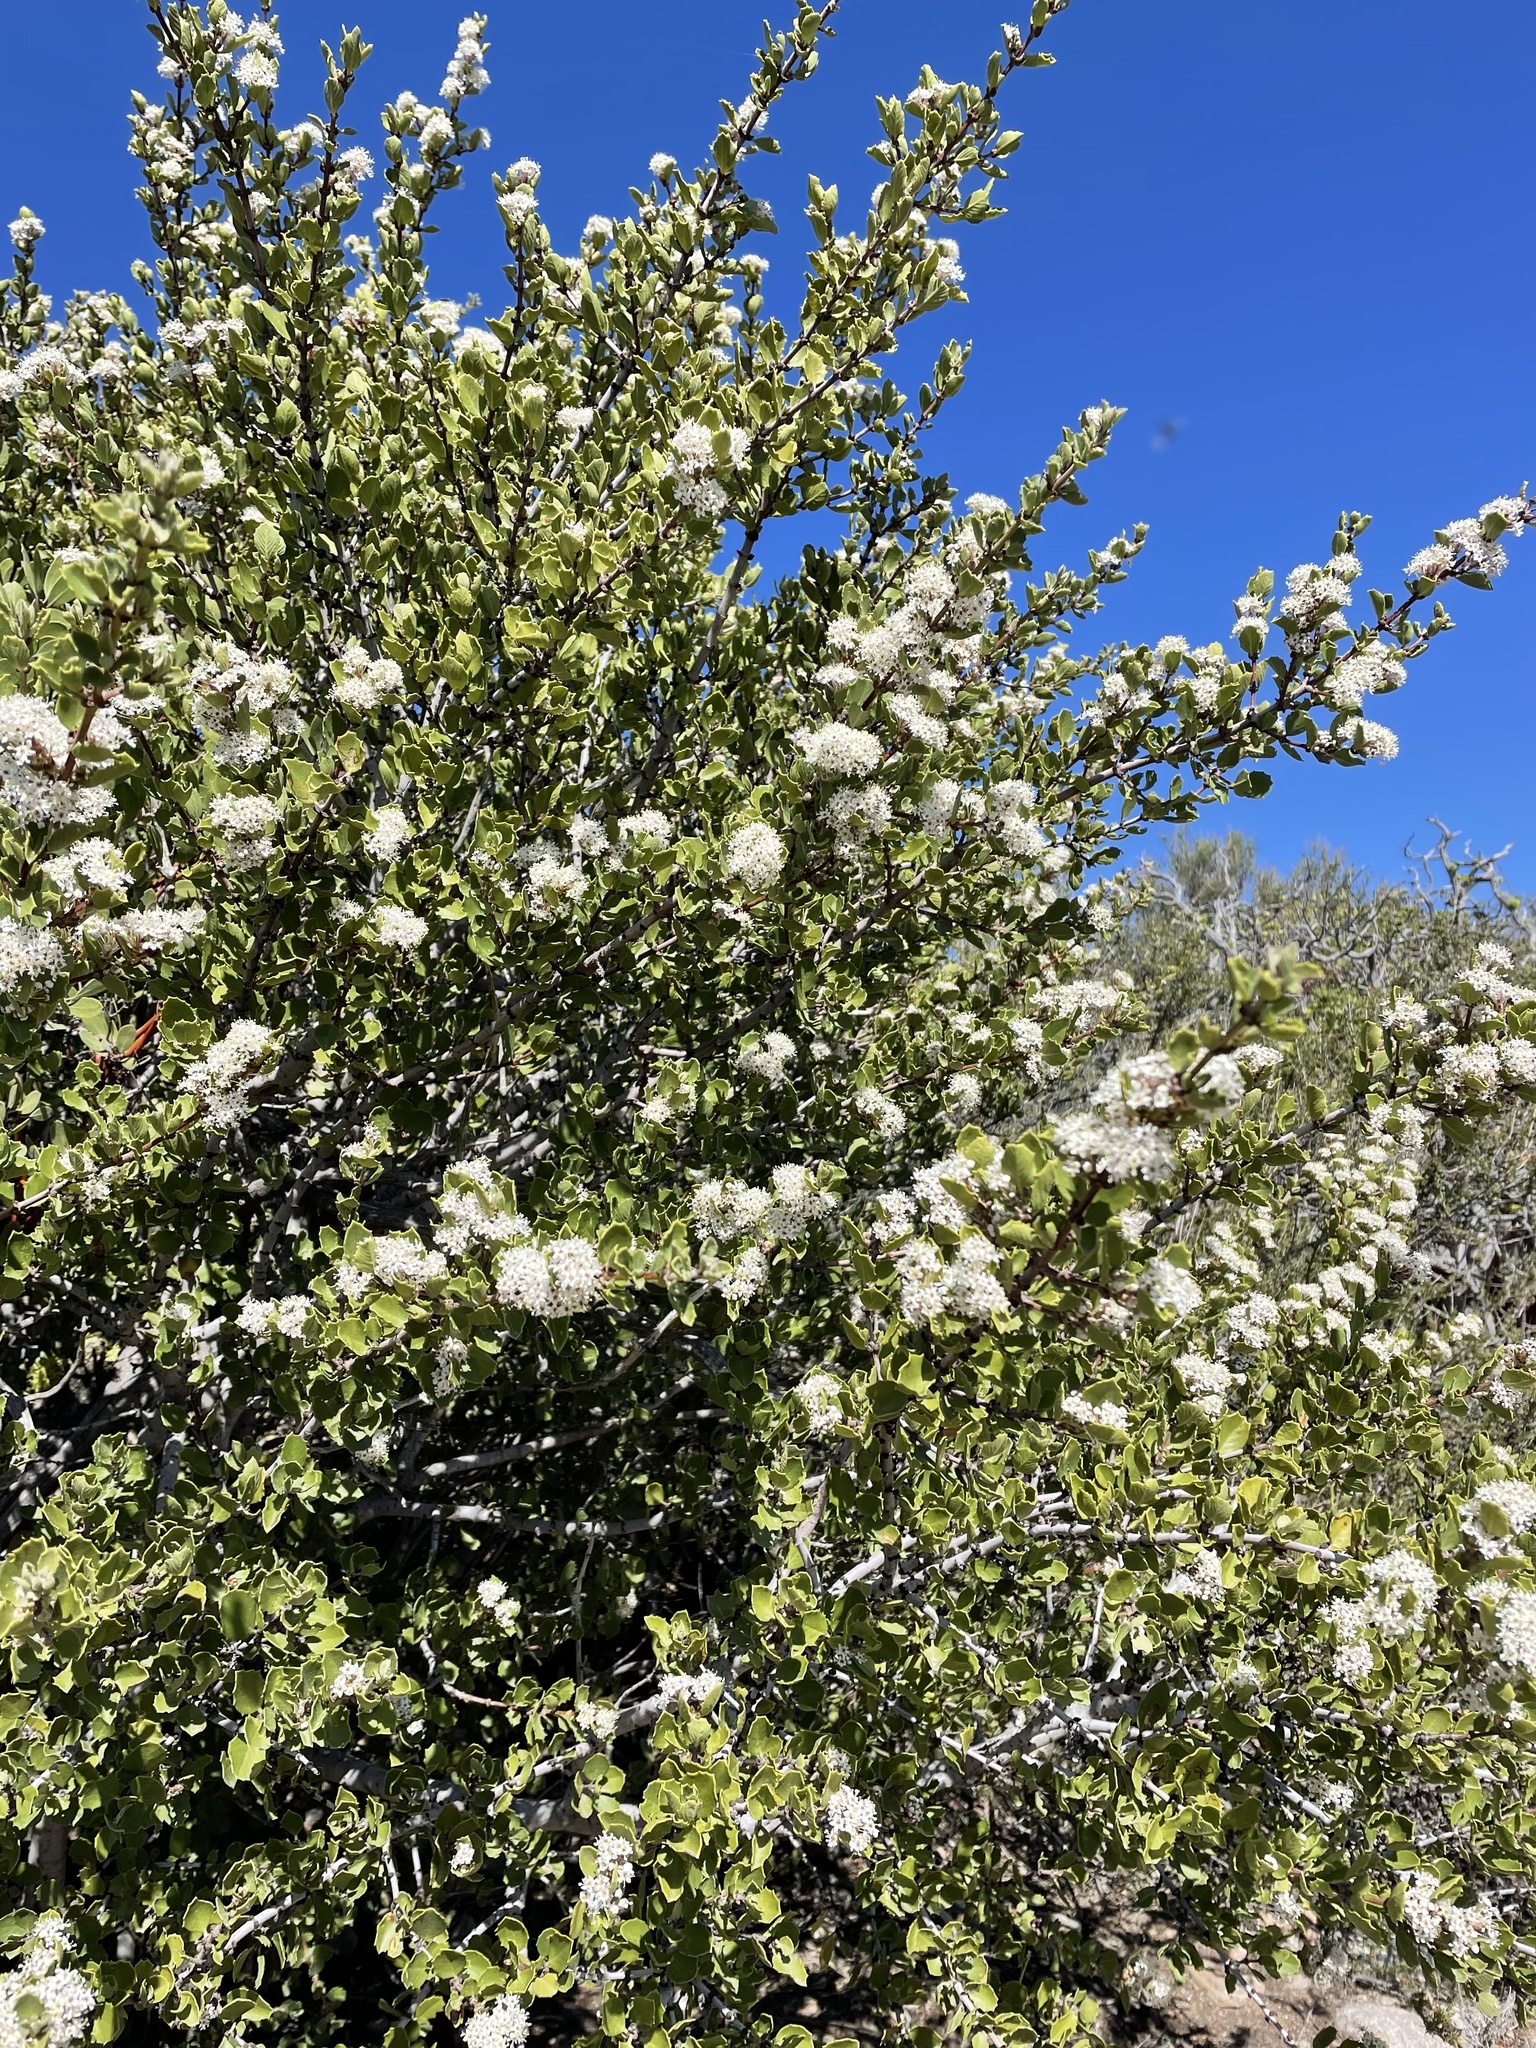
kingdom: Plantae
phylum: Tracheophyta
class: Magnoliopsida
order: Rosales
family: Rhamnaceae
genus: Ceanothus
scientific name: Ceanothus perplexans
